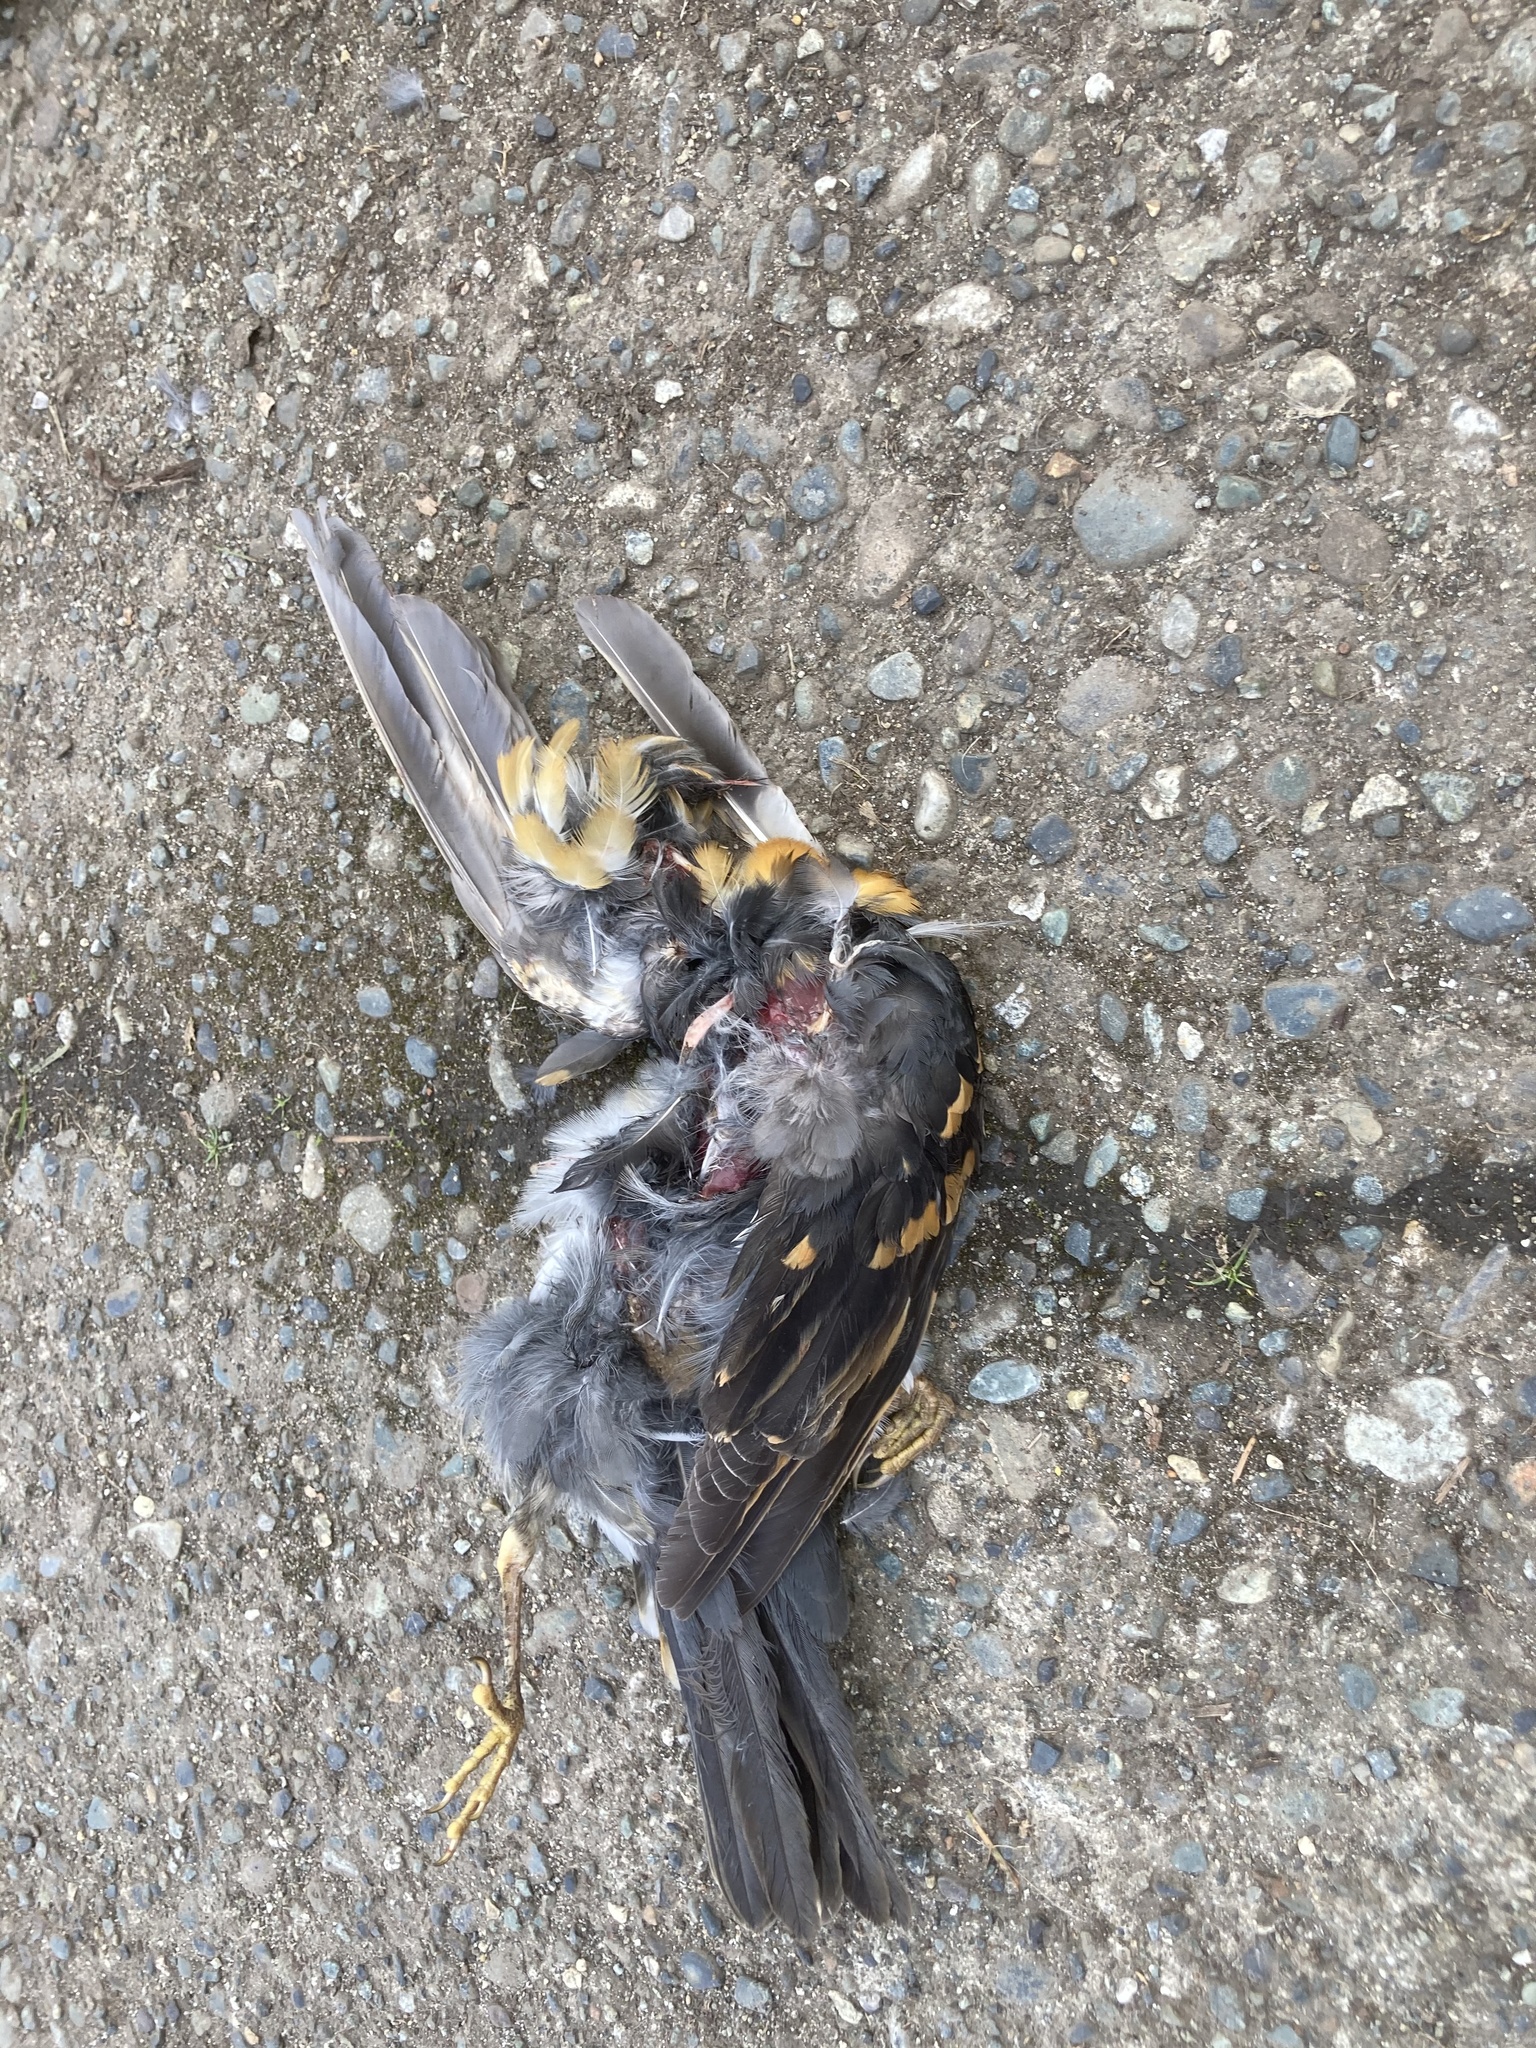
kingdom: Animalia
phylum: Chordata
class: Aves
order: Passeriformes
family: Turdidae
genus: Ixoreus
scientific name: Ixoreus naevius
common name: Varied thrush
